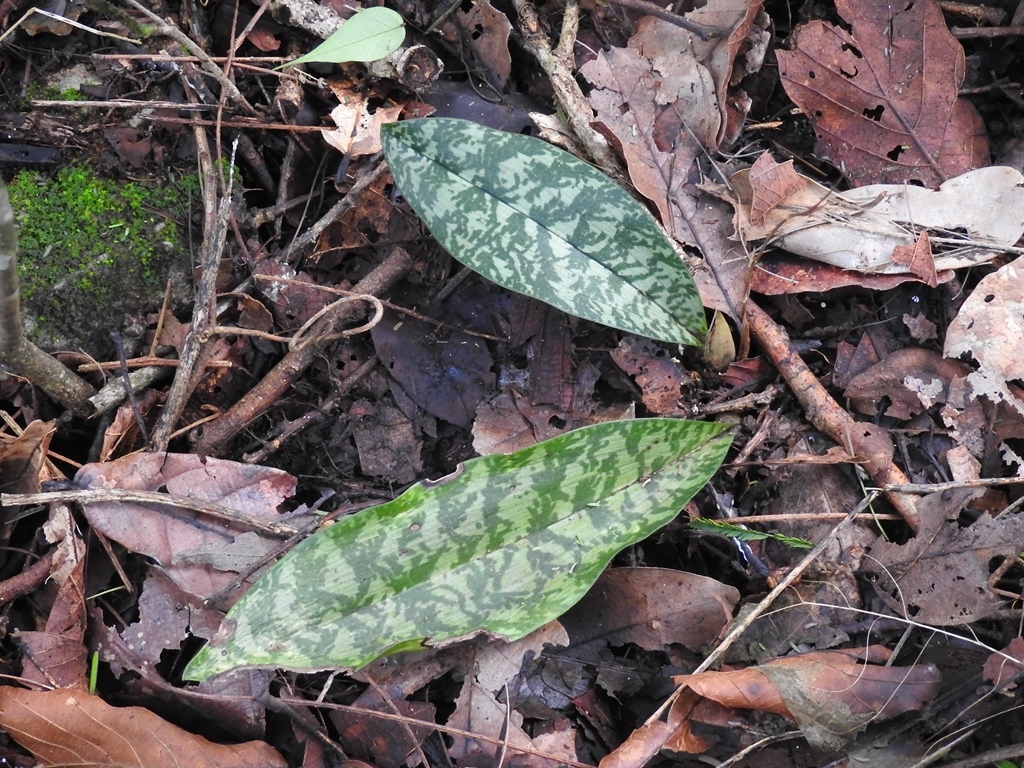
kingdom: Plantae
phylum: Tracheophyta
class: Liliopsida
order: Asparagales
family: Orchidaceae
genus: Eulophia
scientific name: Eulophia maculata
